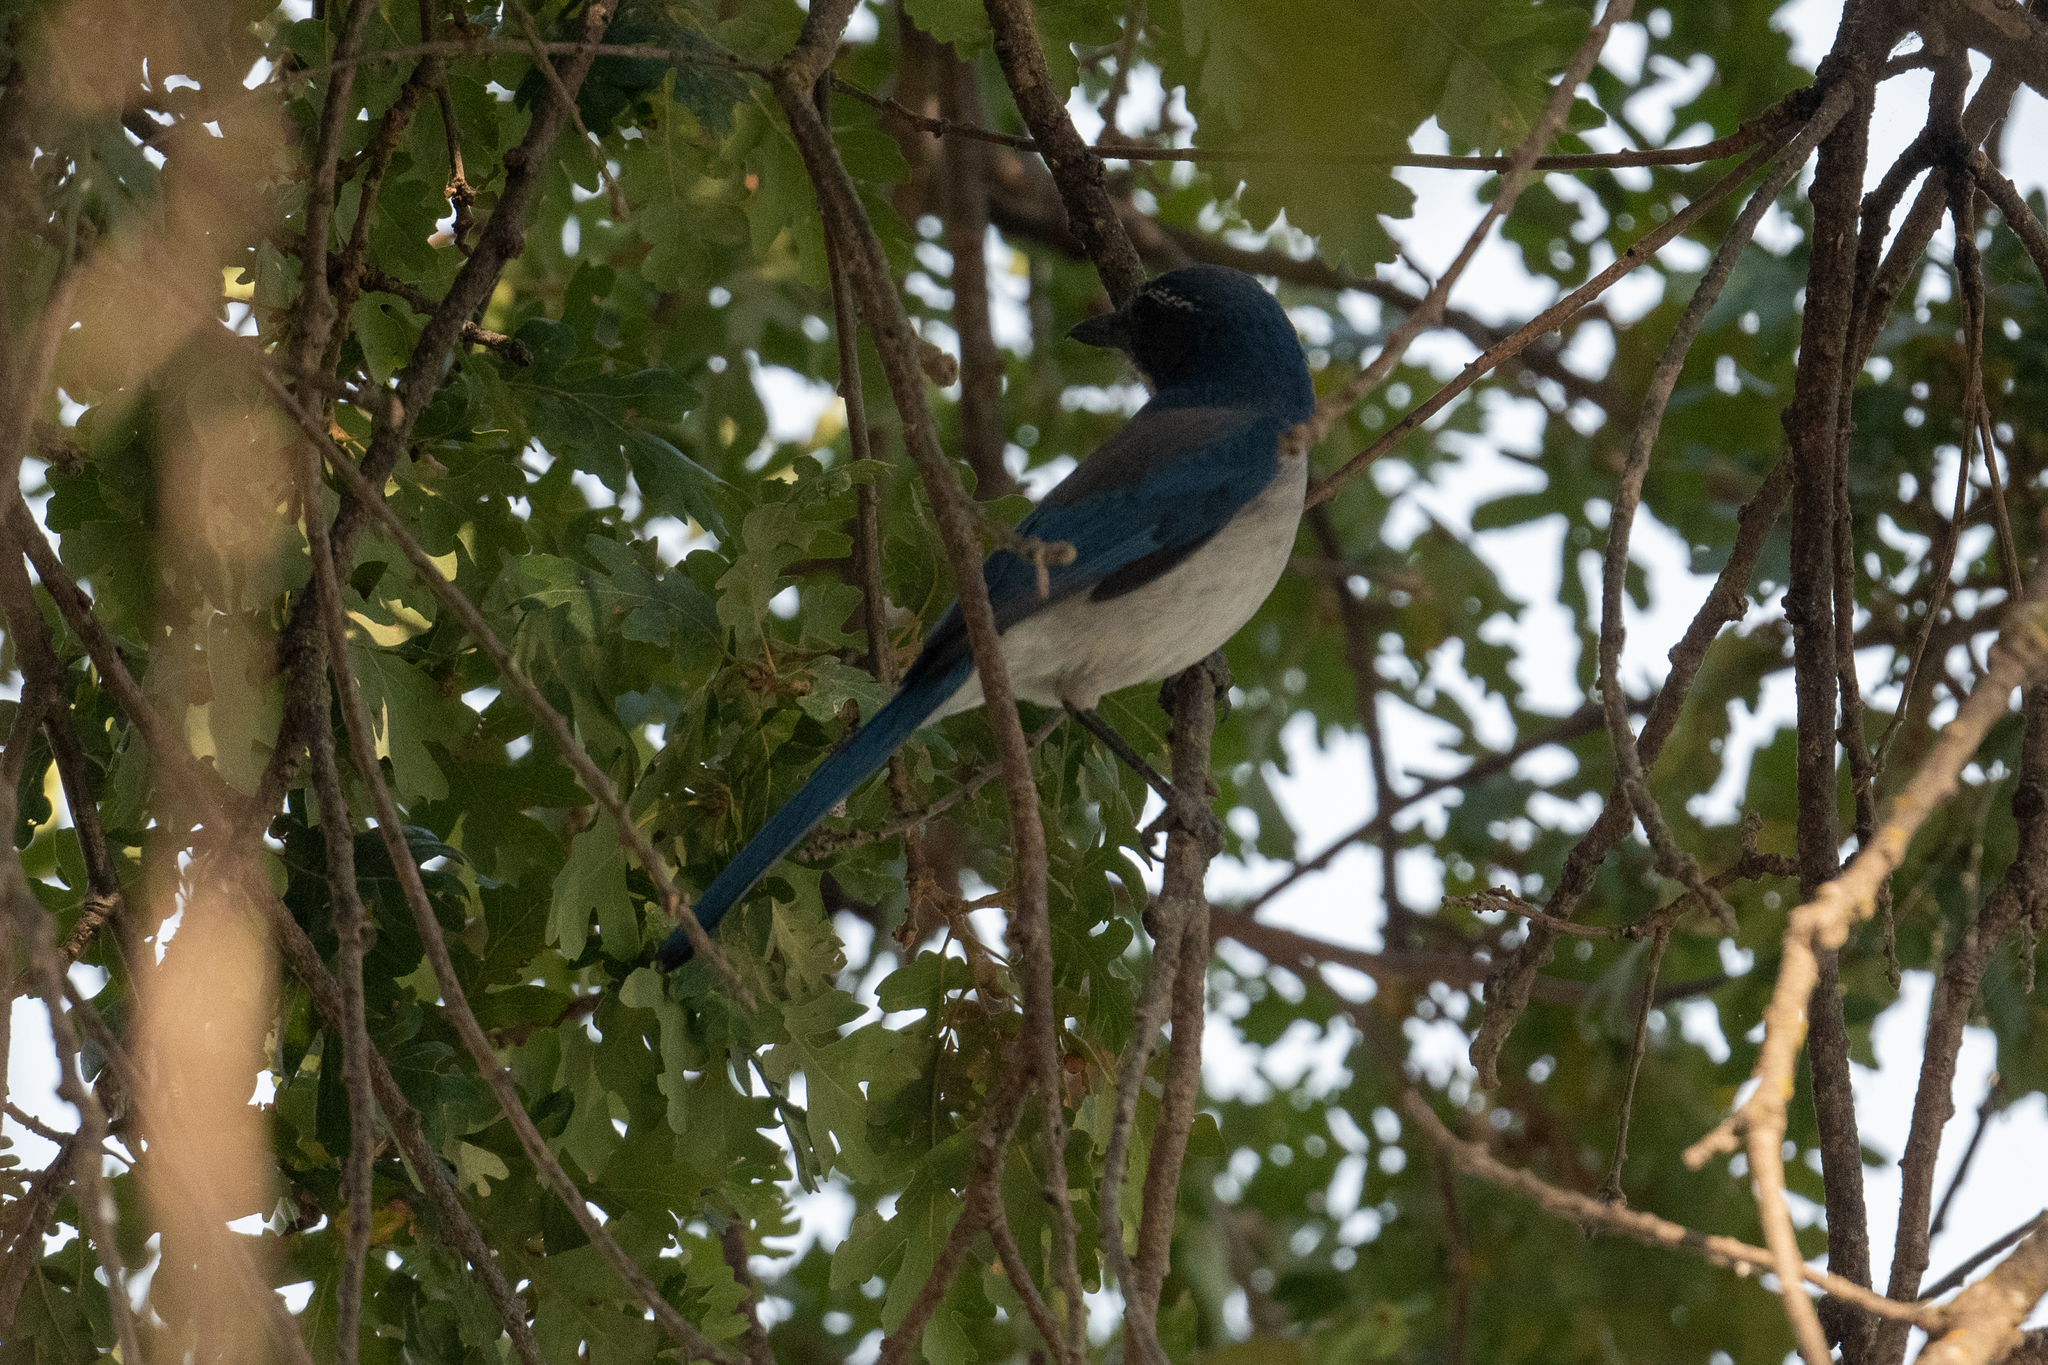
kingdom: Animalia
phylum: Chordata
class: Aves
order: Passeriformes
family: Corvidae
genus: Aphelocoma
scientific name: Aphelocoma californica
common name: California scrub-jay
